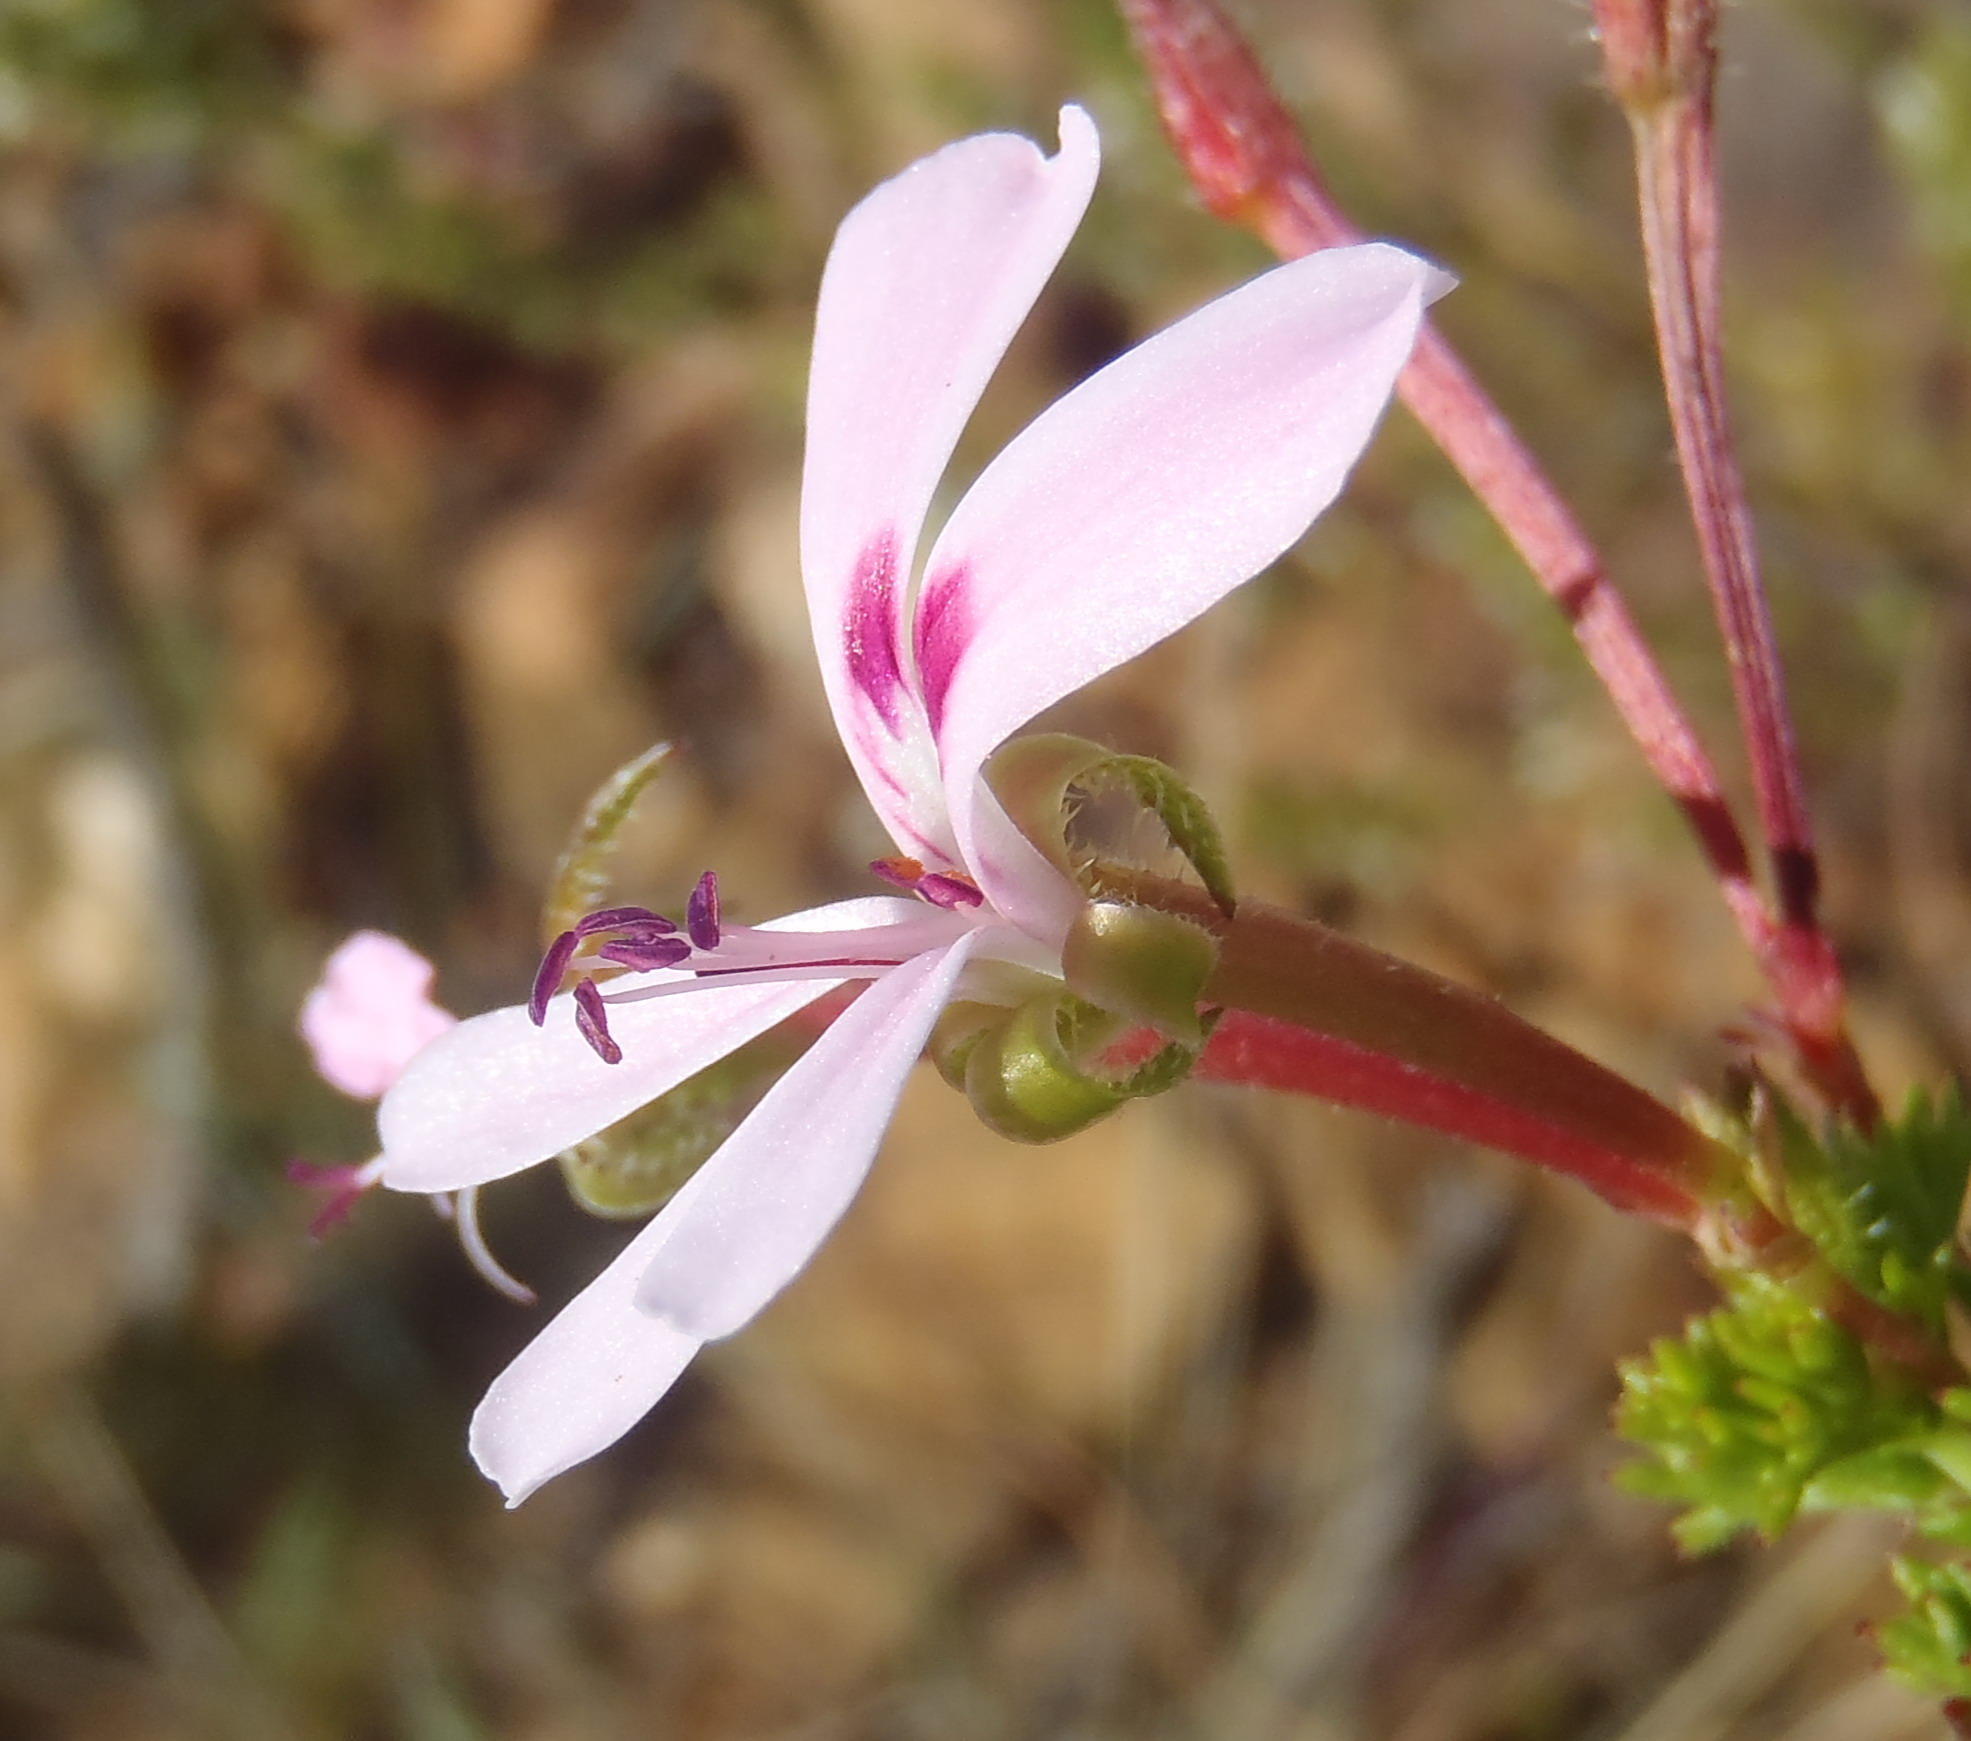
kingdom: Plantae
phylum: Tracheophyta
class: Magnoliopsida
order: Geraniales
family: Geraniaceae
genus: Pelargonium
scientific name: Pelargonium fruticosum
